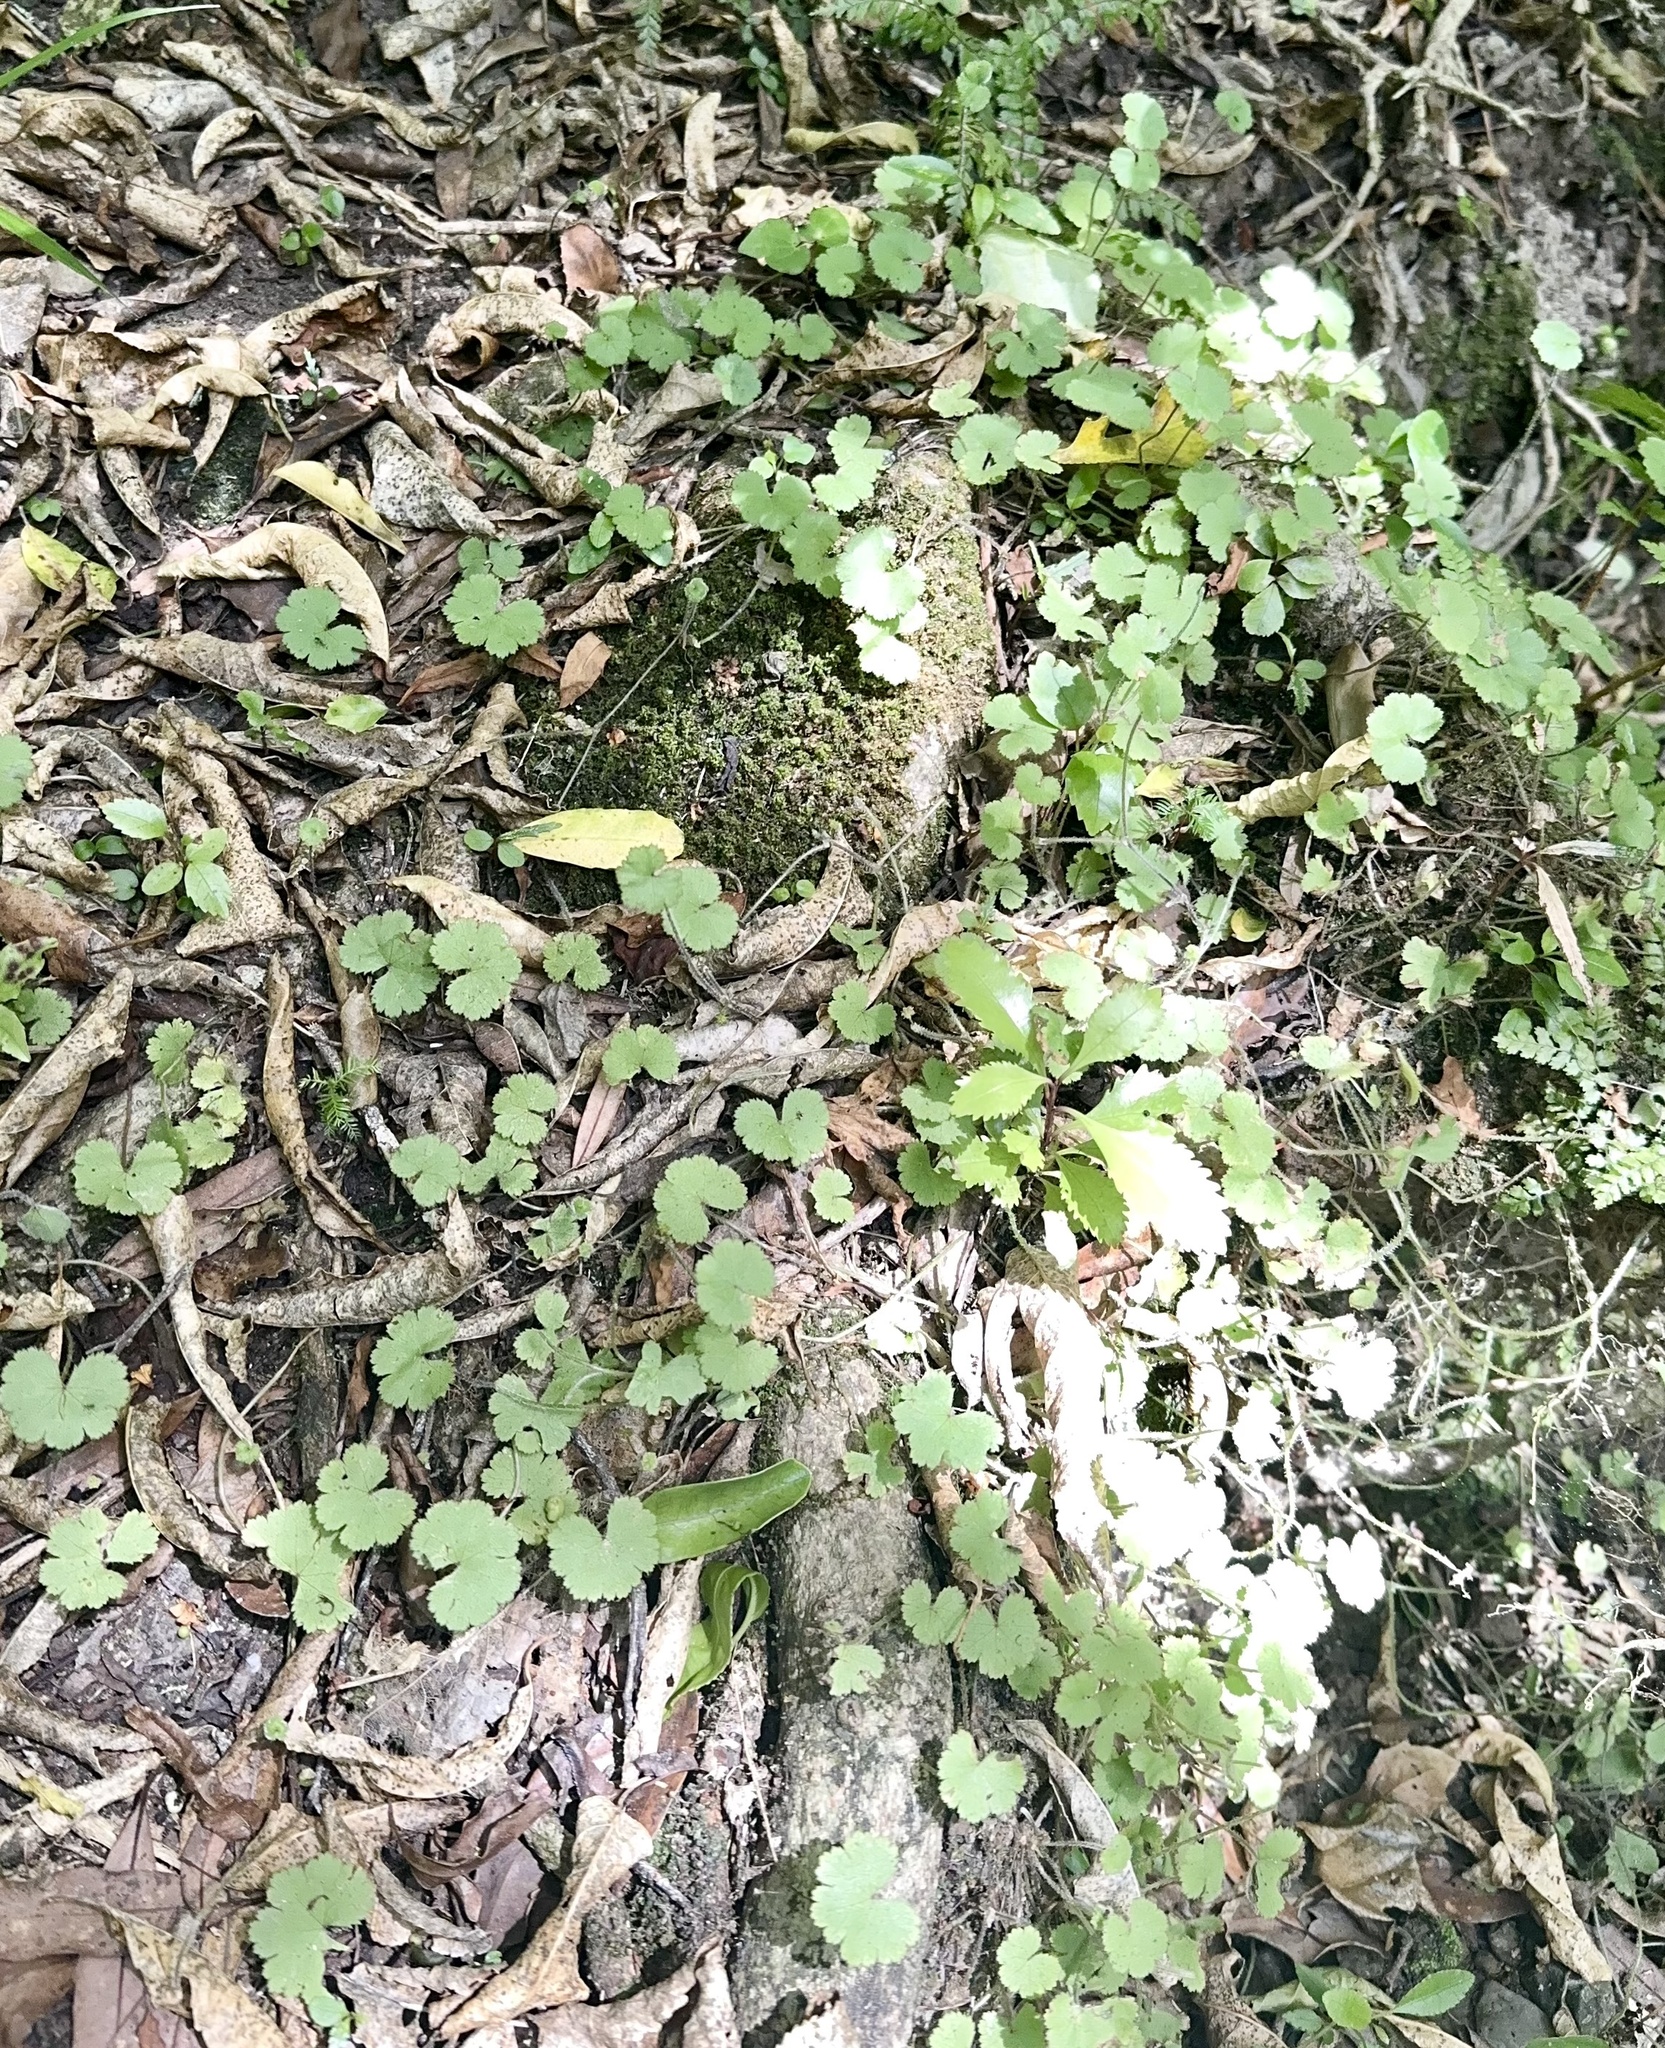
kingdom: Plantae
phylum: Tracheophyta
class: Magnoliopsida
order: Apiales
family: Araliaceae
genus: Hydrocotyle
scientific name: Hydrocotyle moschata
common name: Hairy pennywort
